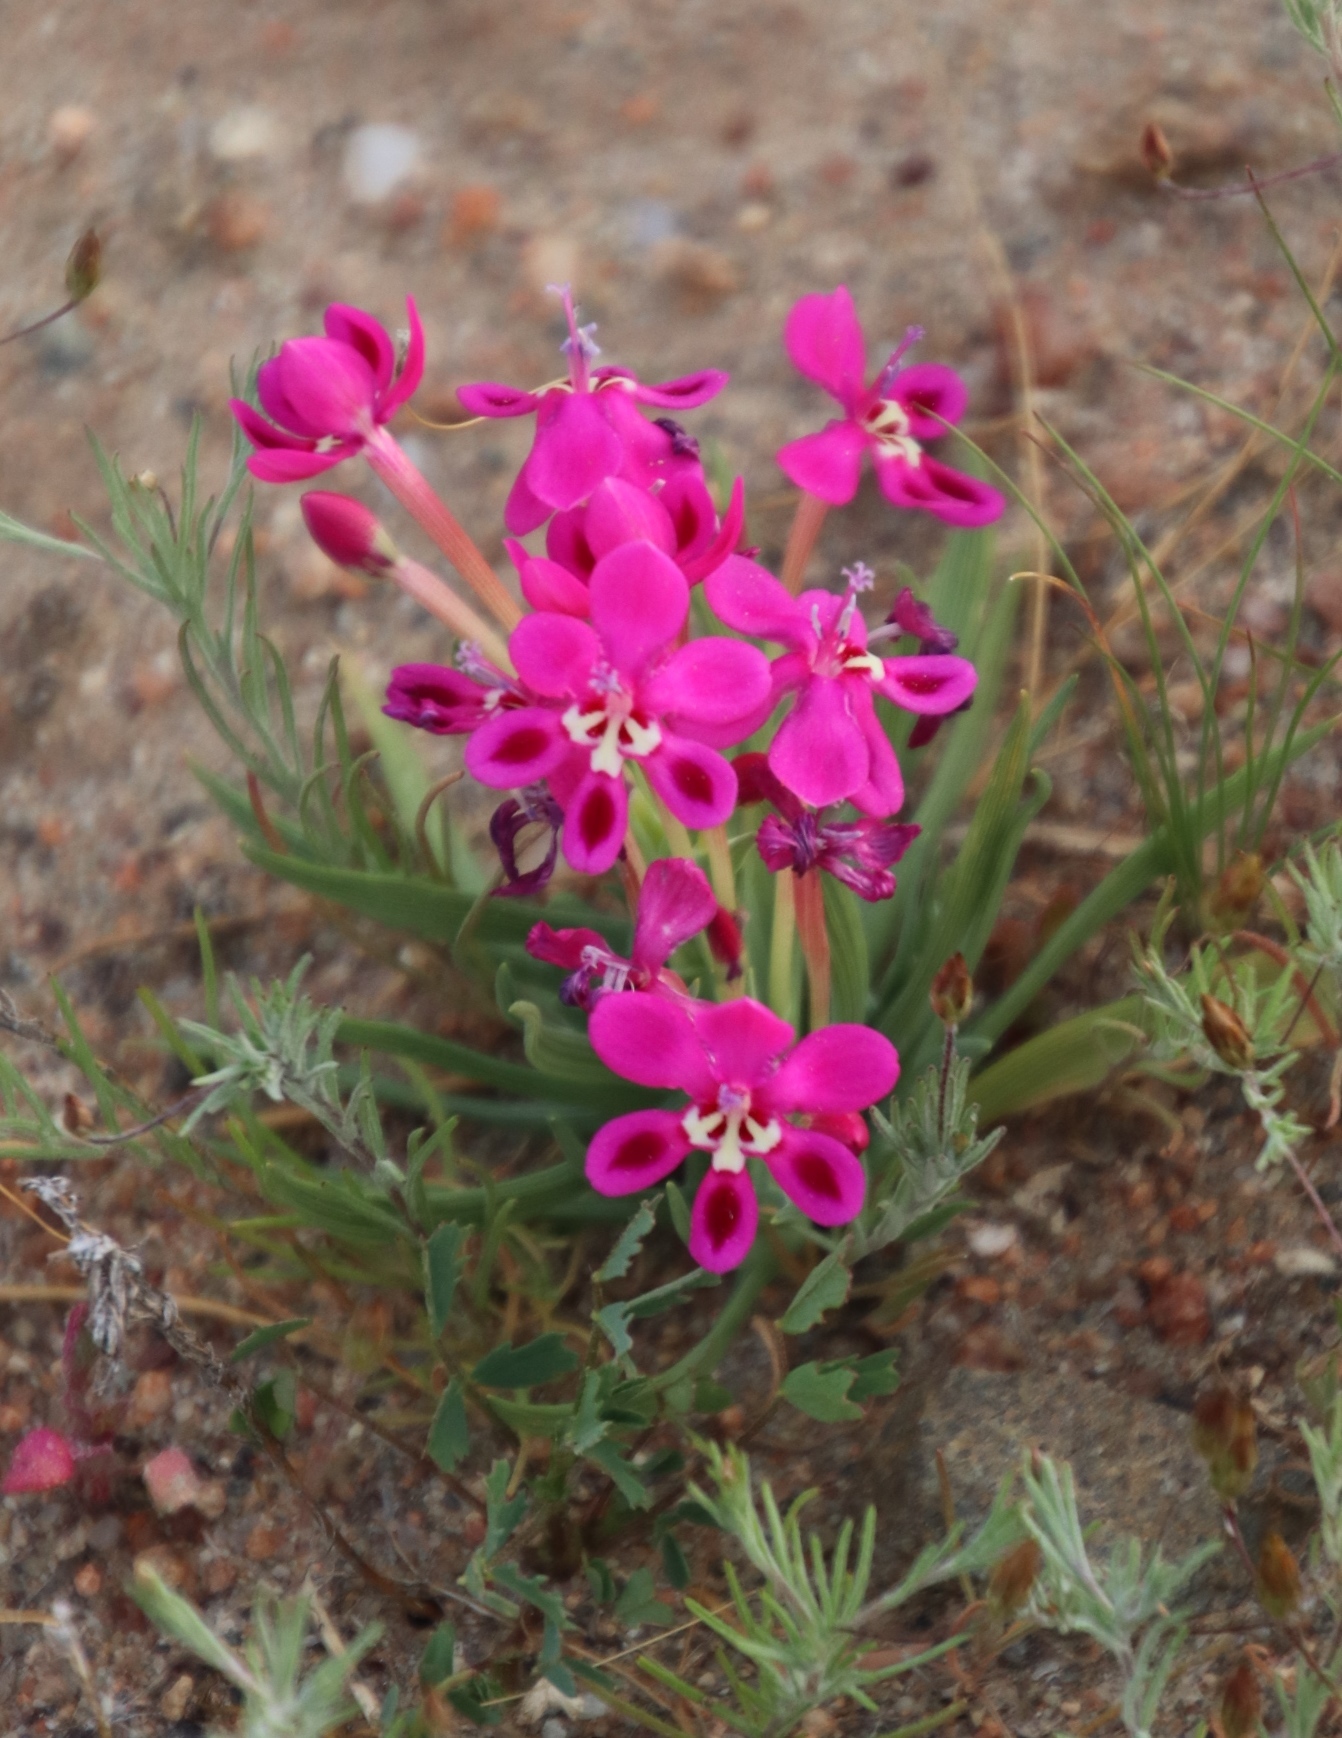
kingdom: Plantae
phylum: Tracheophyta
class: Liliopsida
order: Asparagales
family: Iridaceae
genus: Lapeirousia
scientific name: Lapeirousia silenoides
